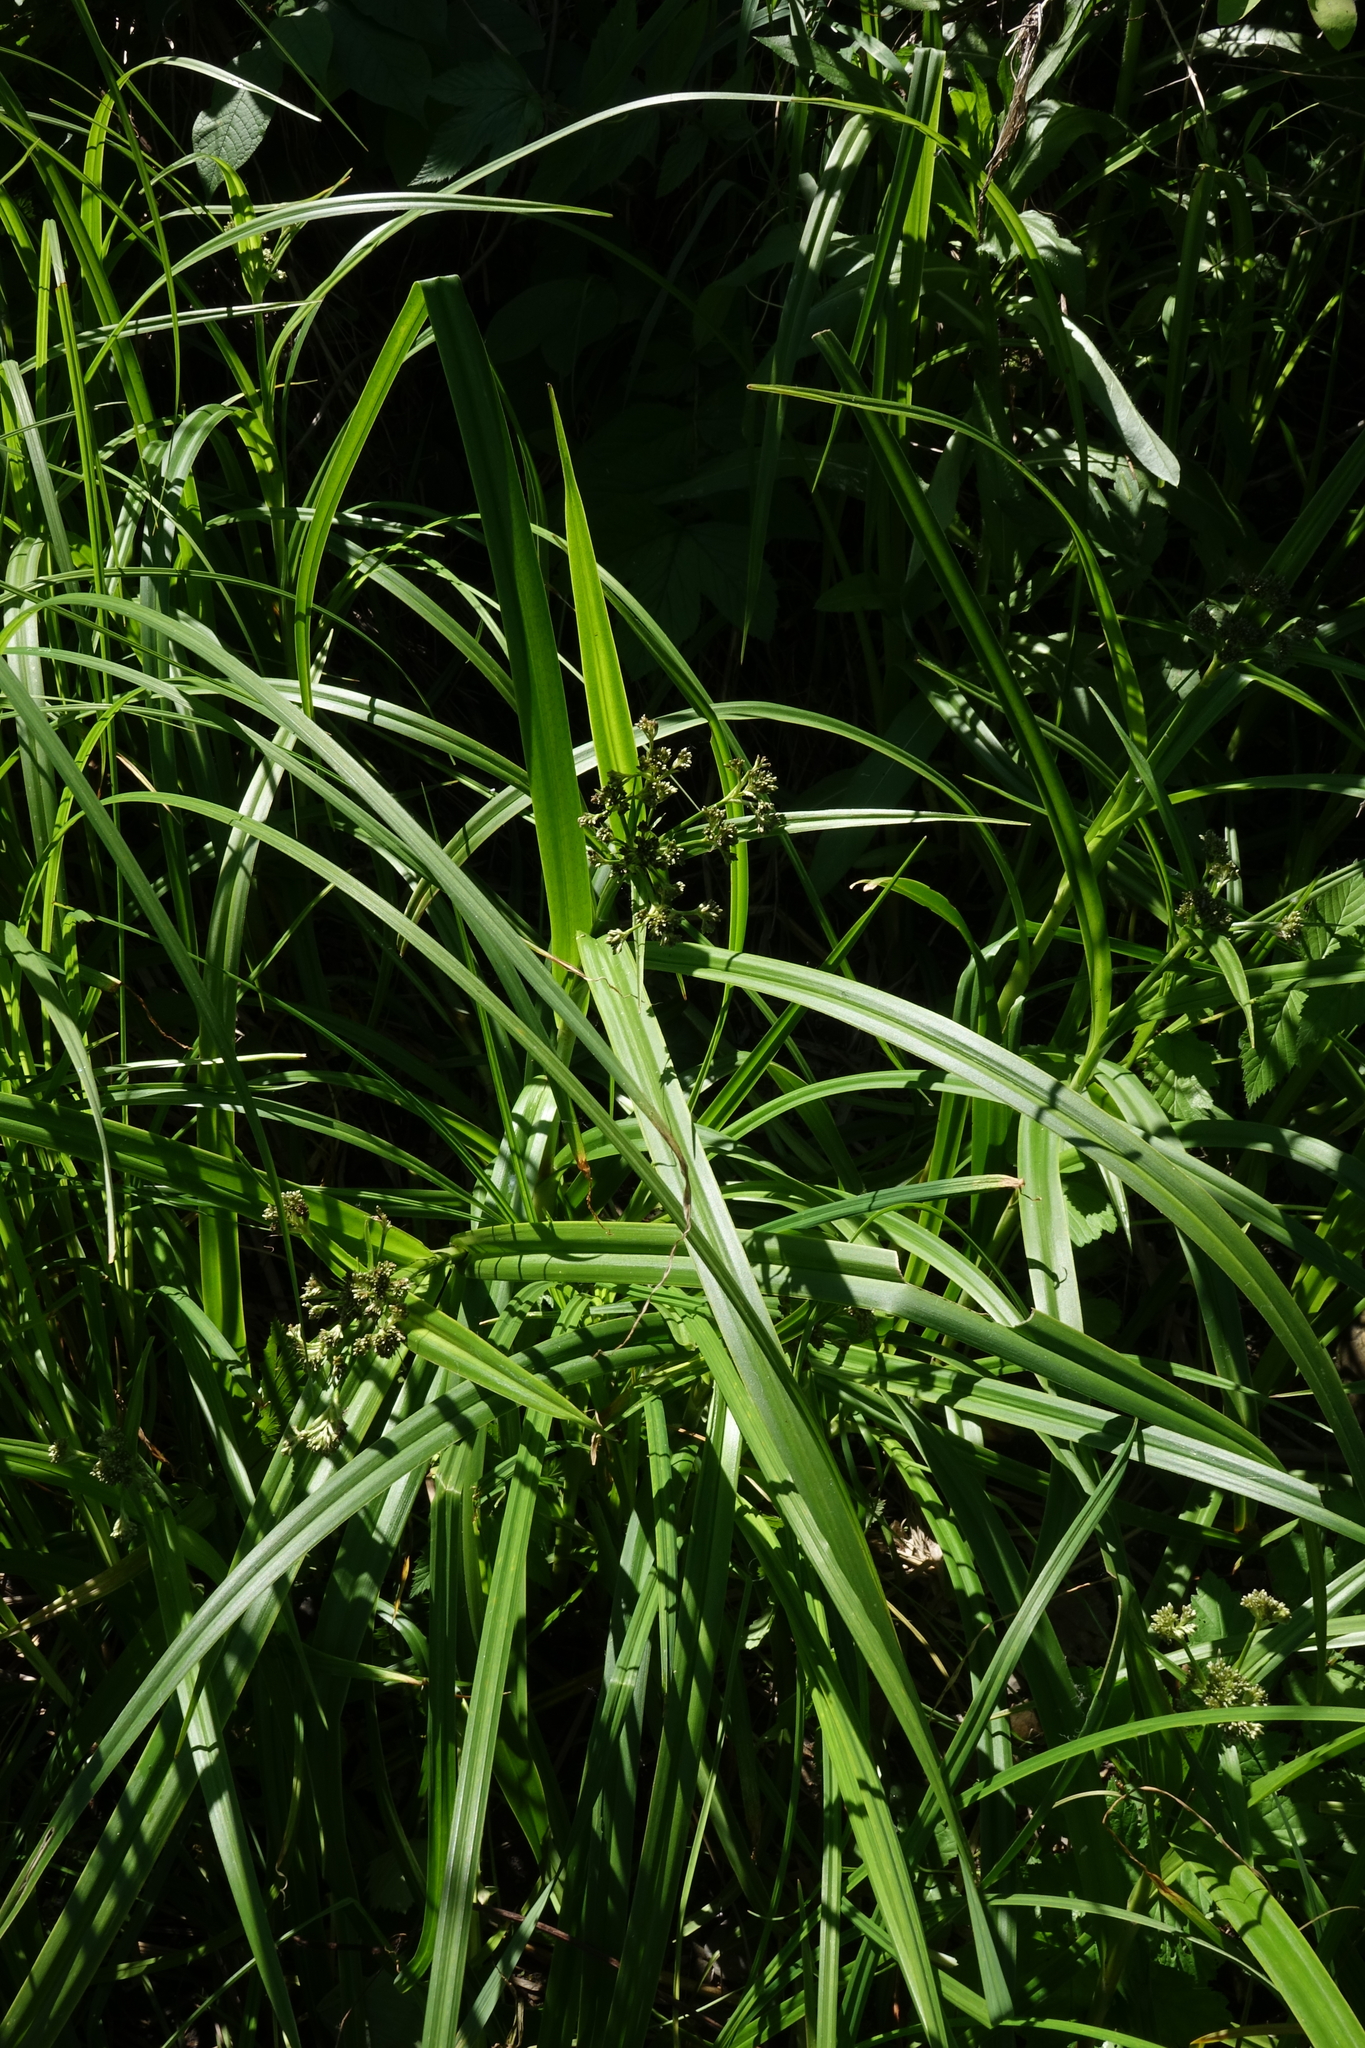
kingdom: Plantae
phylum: Tracheophyta
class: Liliopsida
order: Poales
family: Cyperaceae
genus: Scirpus
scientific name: Scirpus sylvaticus
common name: Wood club-rush
